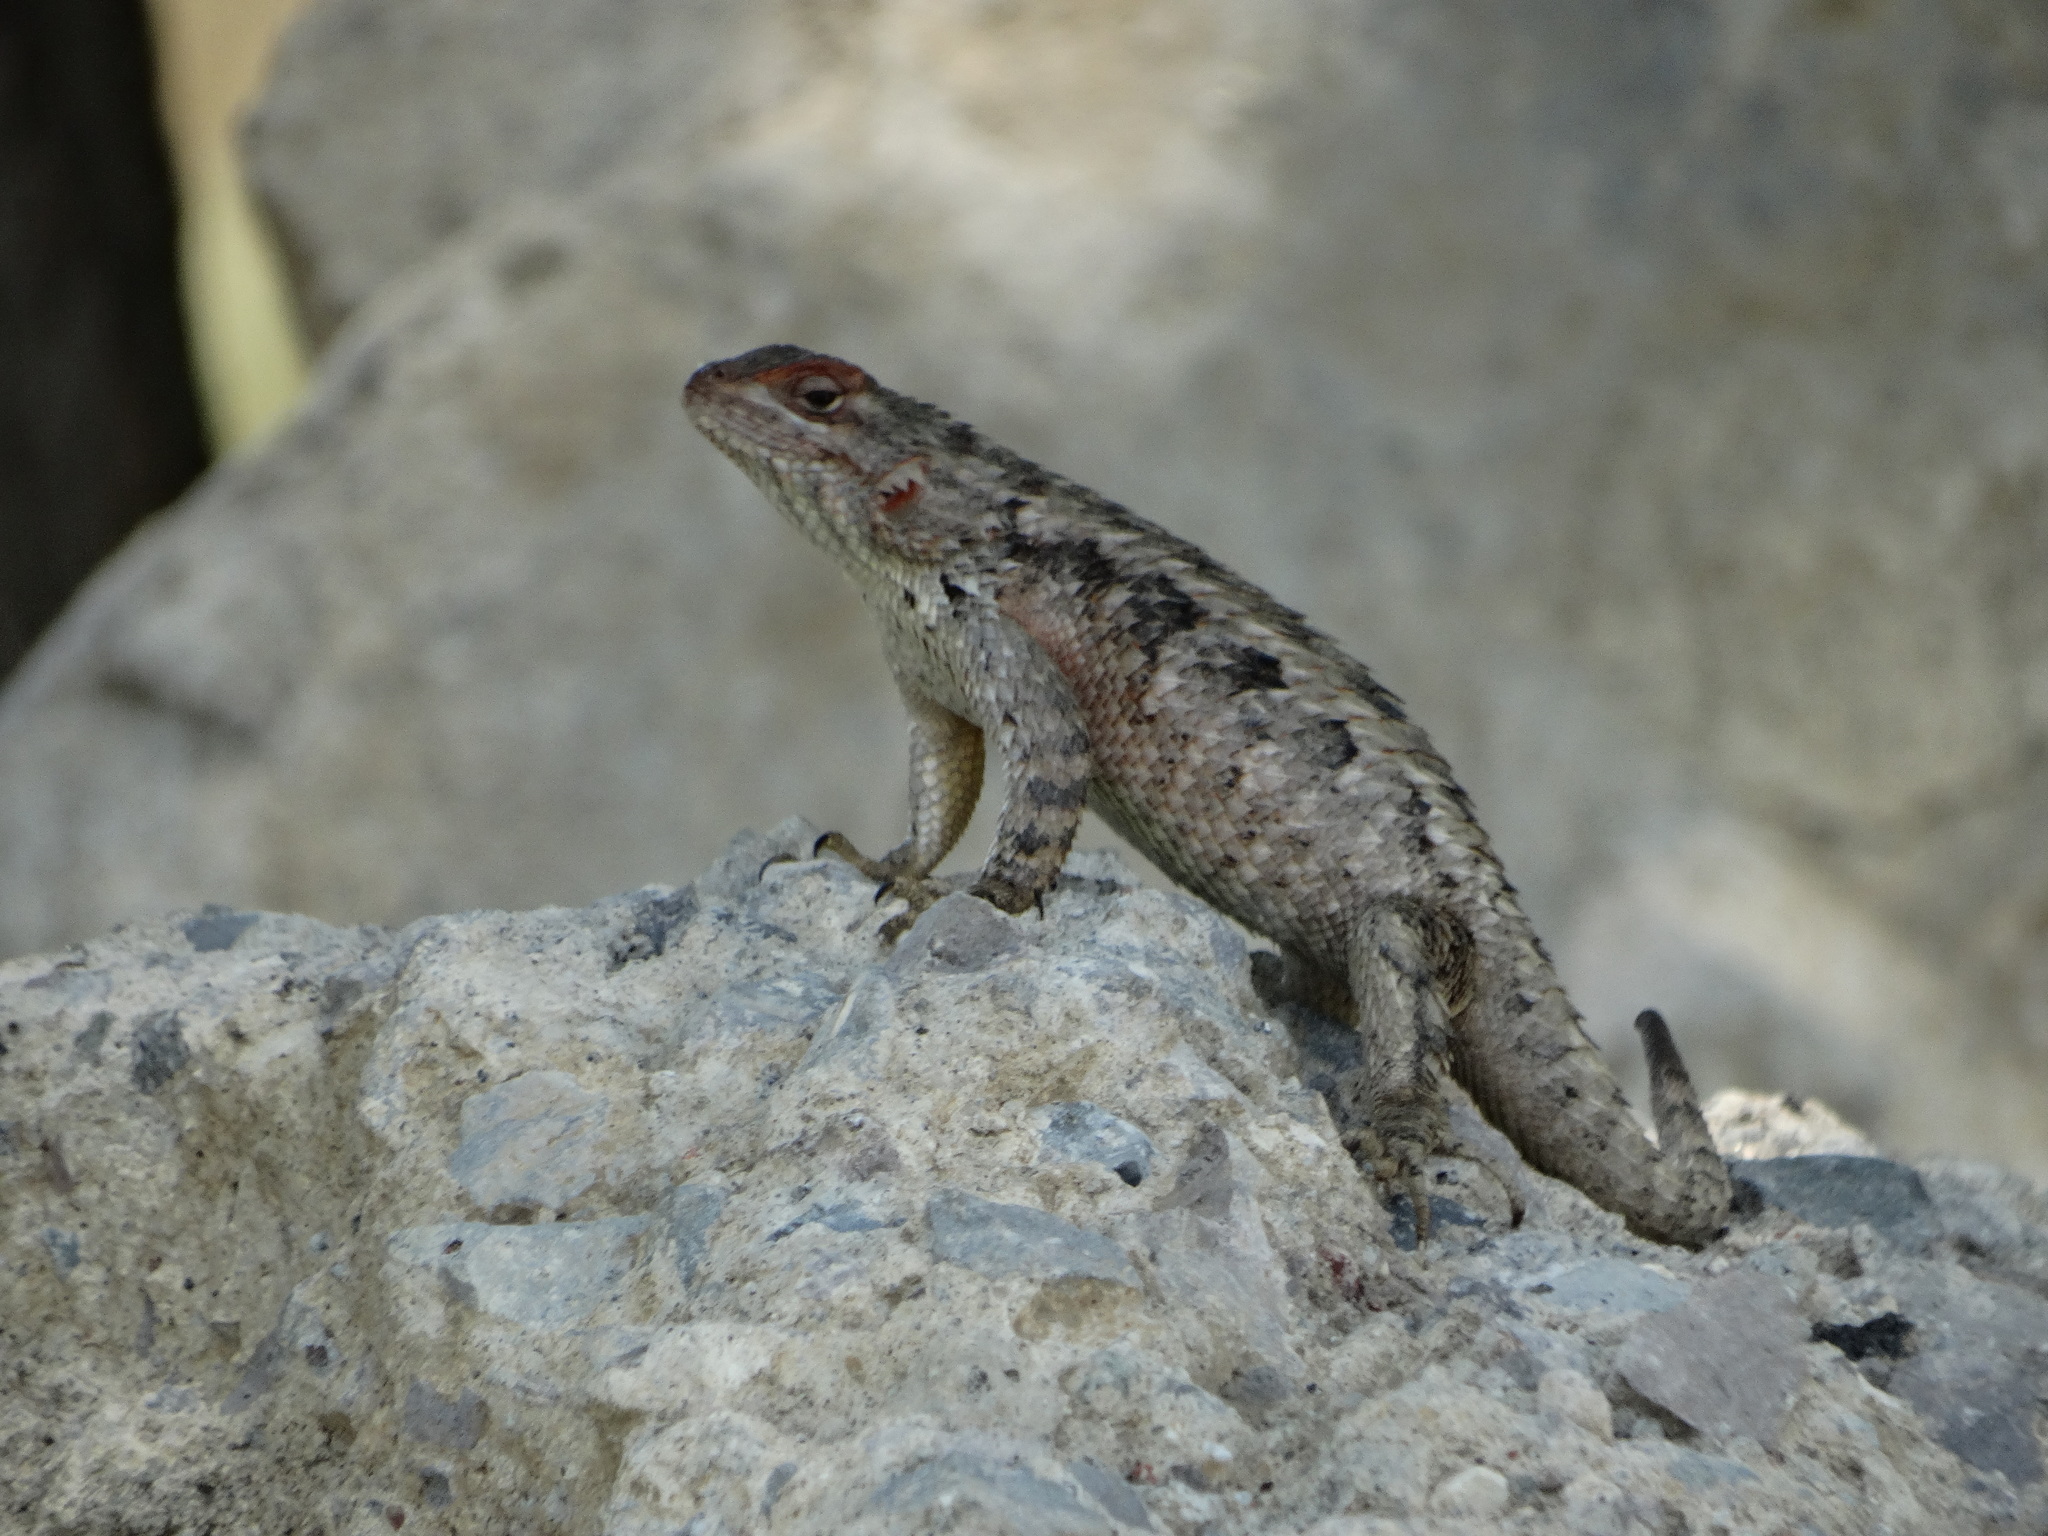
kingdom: Animalia
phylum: Chordata
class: Squamata
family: Phrynosomatidae
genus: Sceloporus
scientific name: Sceloporus spinosus
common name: Blue-spotted spiny lizard [caeruleopunctatus]
